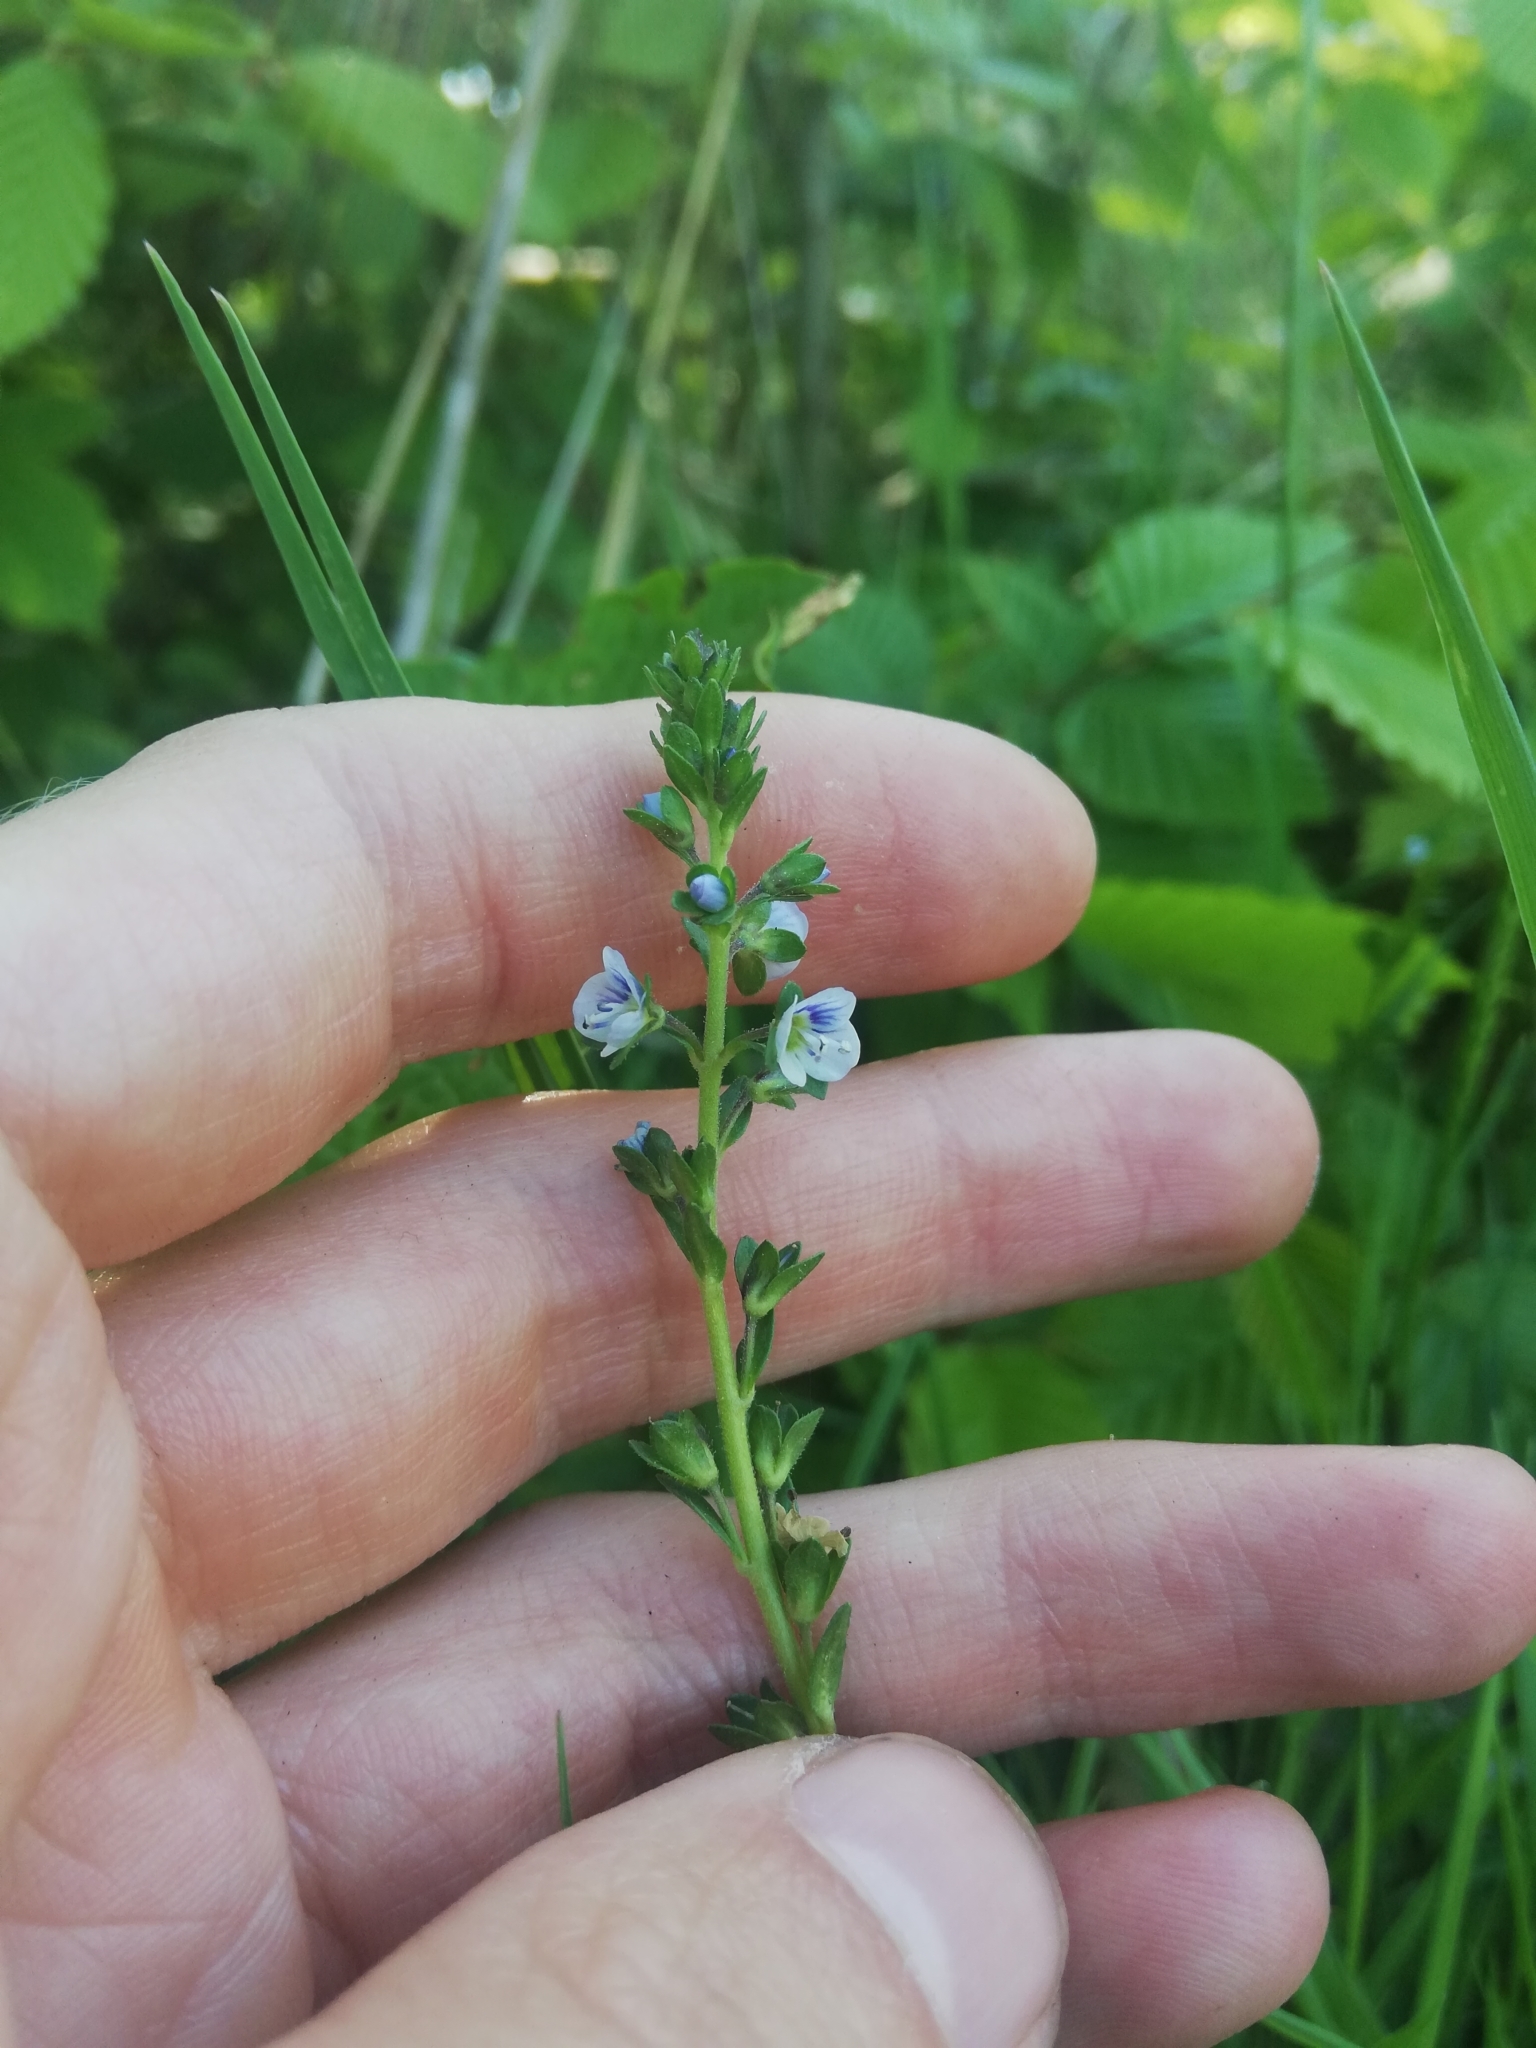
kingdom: Plantae
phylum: Tracheophyta
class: Magnoliopsida
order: Lamiales
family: Plantaginaceae
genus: Veronica
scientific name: Veronica serpyllifolia
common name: Thyme-leaved speedwell
